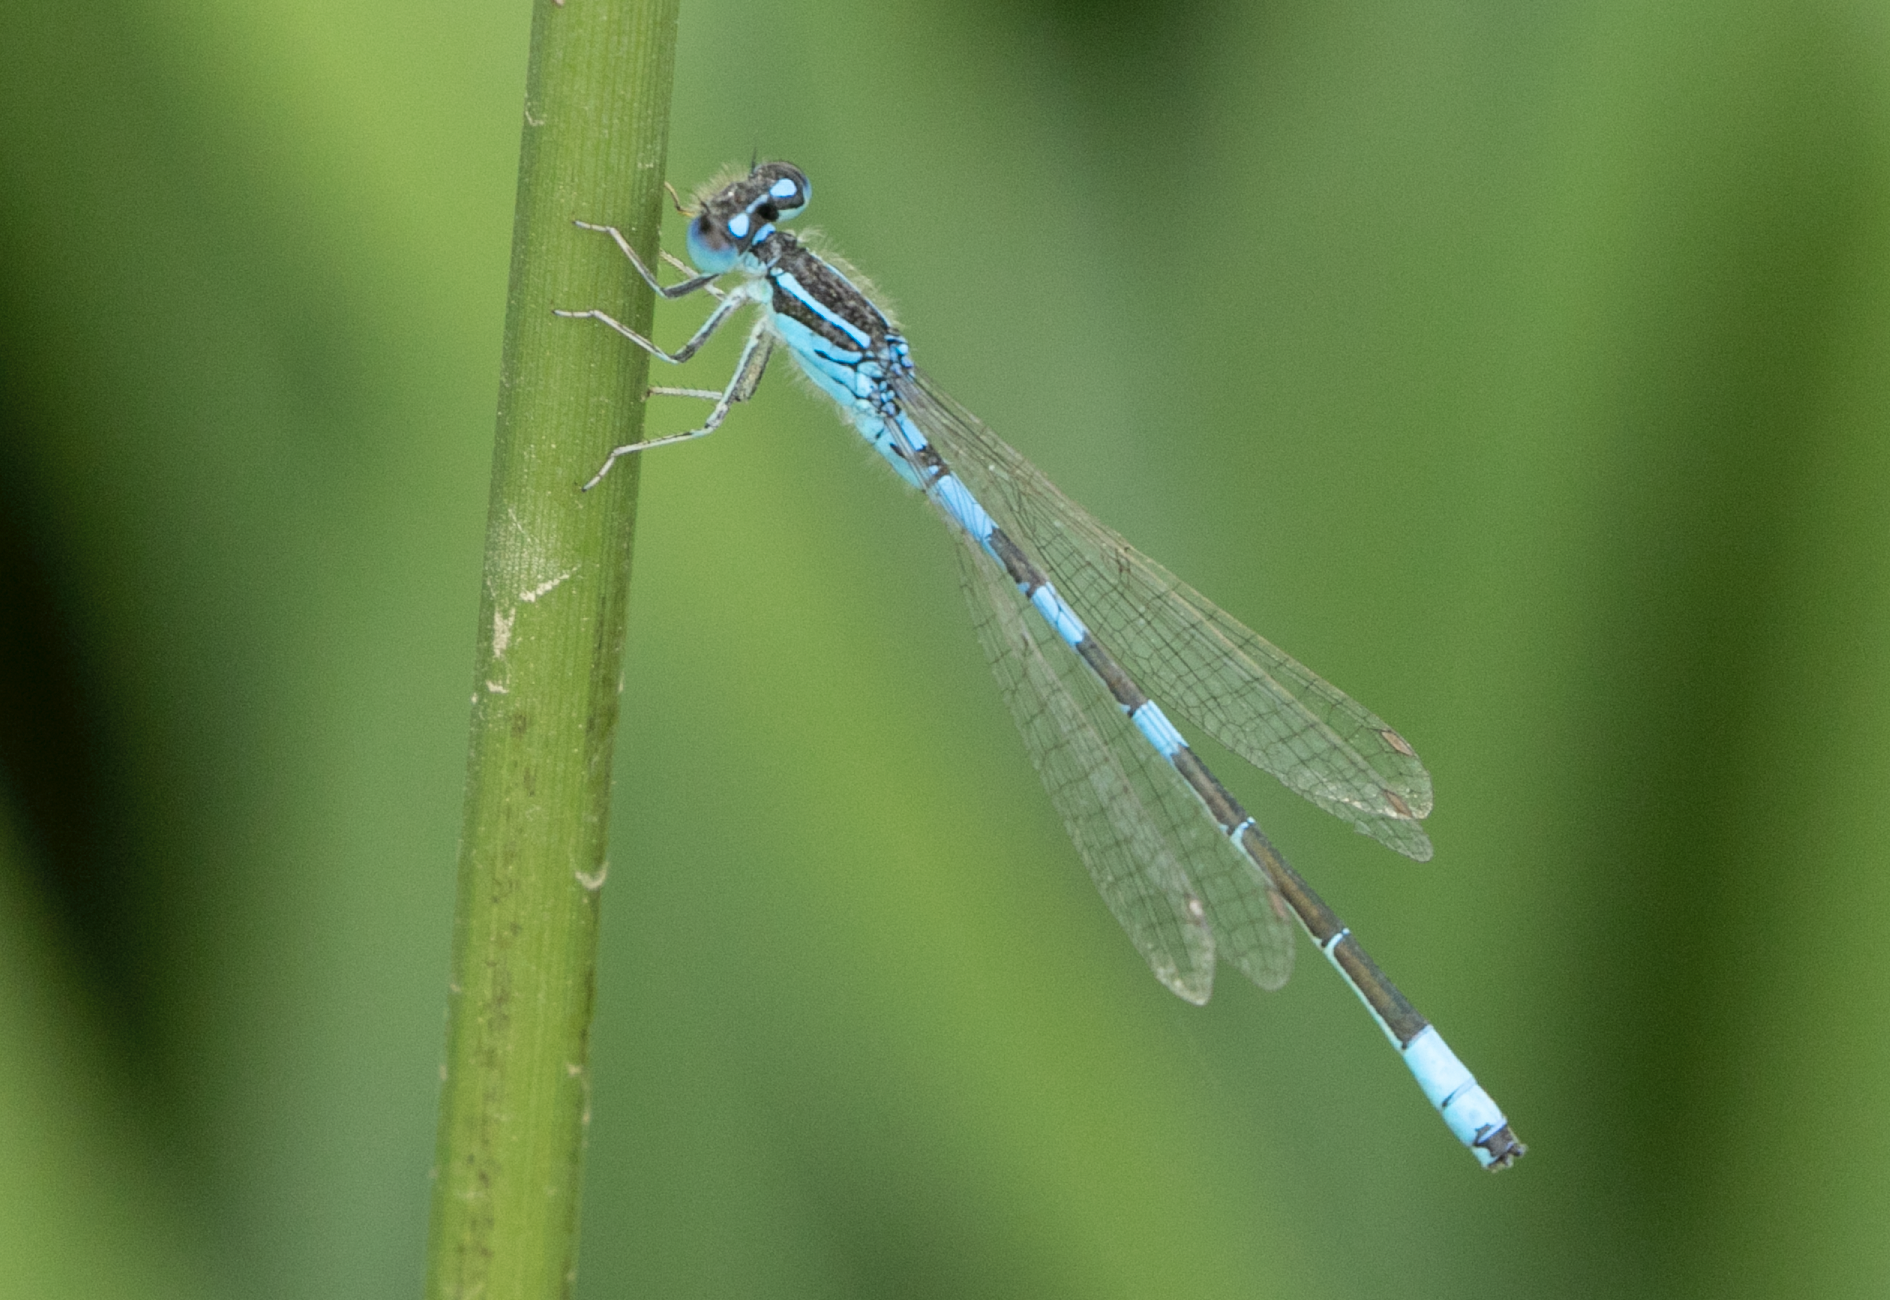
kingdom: Animalia
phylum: Arthropoda
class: Insecta
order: Odonata
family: Coenagrionidae
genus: Coenagrion
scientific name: Coenagrion scitulum
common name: Dainty bluet
